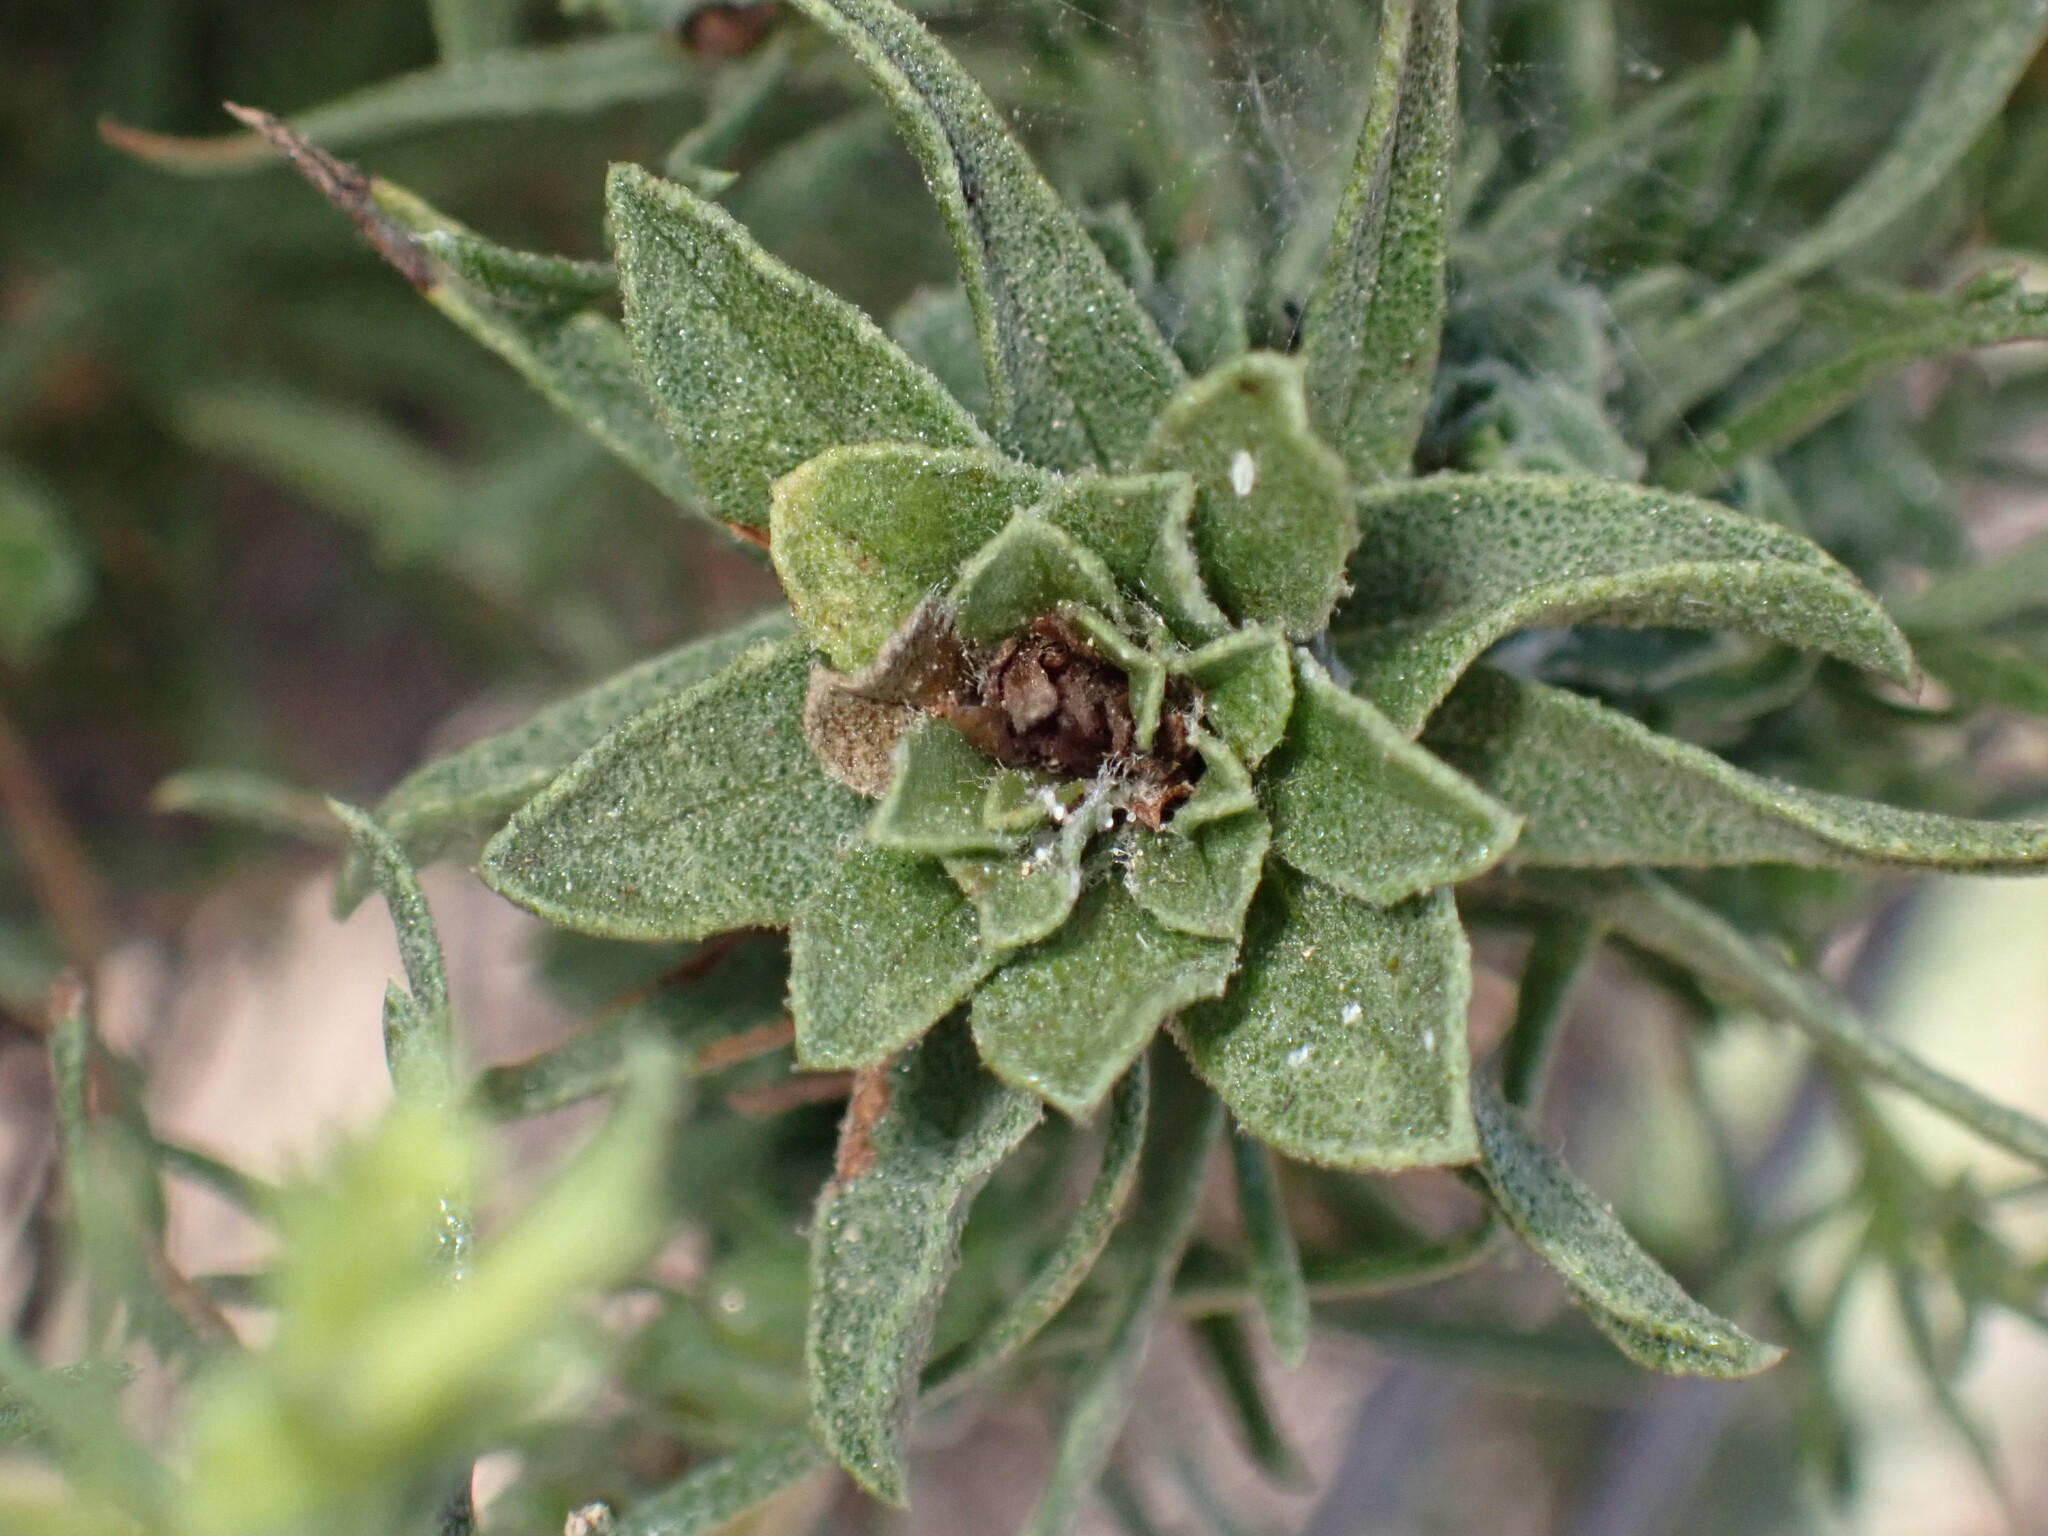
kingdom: Plantae
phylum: Tracheophyta
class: Magnoliopsida
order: Asterales
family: Asteraceae
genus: Ericameria
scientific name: Ericameria palmeri
